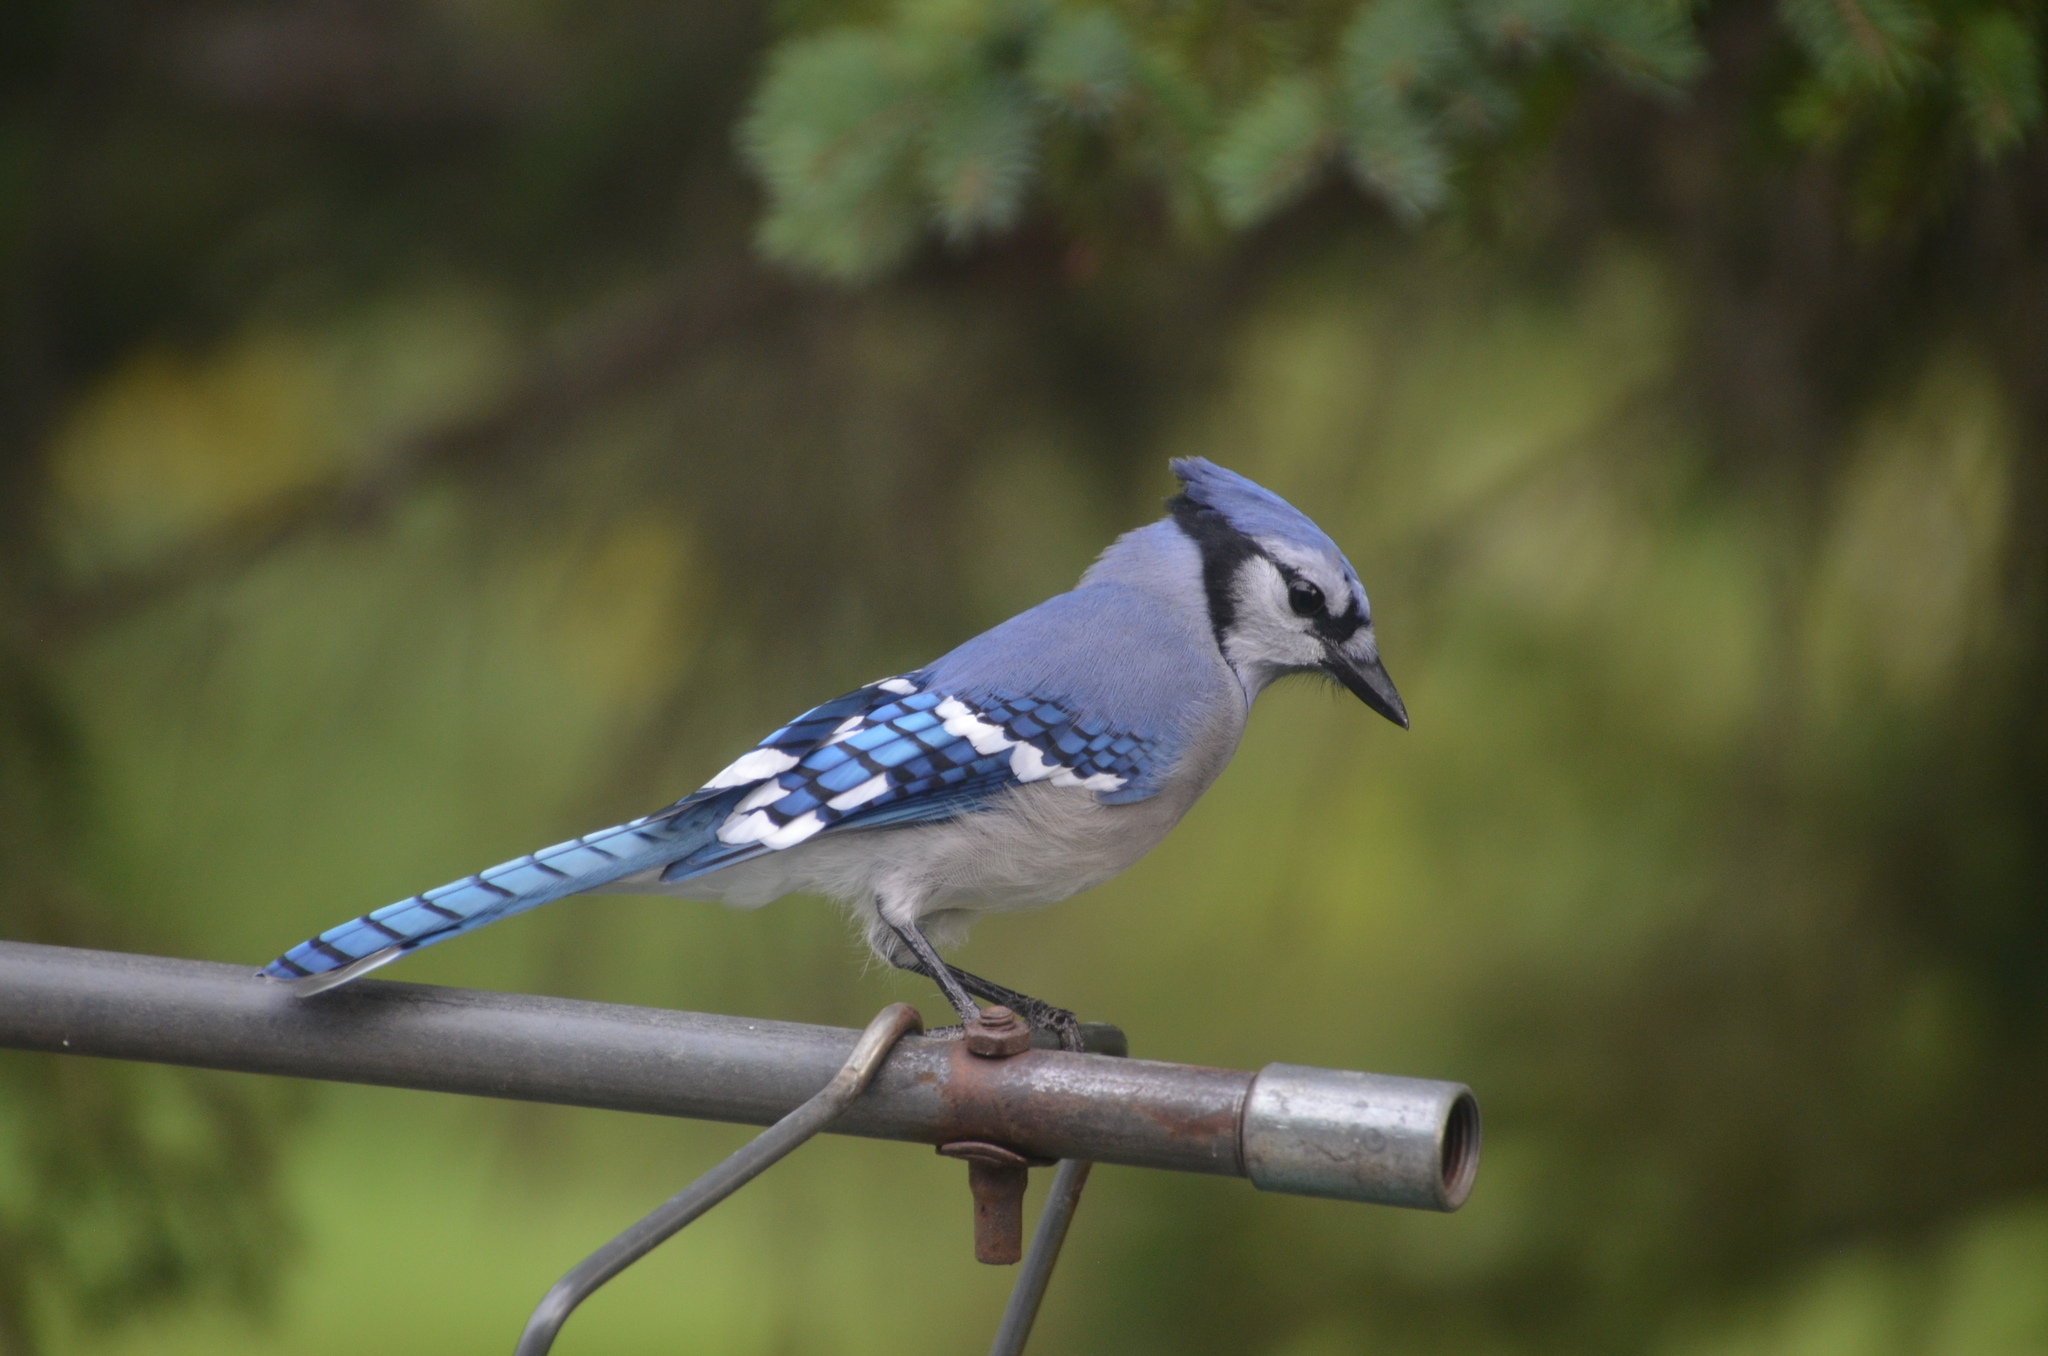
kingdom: Animalia
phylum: Chordata
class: Aves
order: Passeriformes
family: Corvidae
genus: Cyanocitta
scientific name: Cyanocitta cristata
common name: Blue jay
